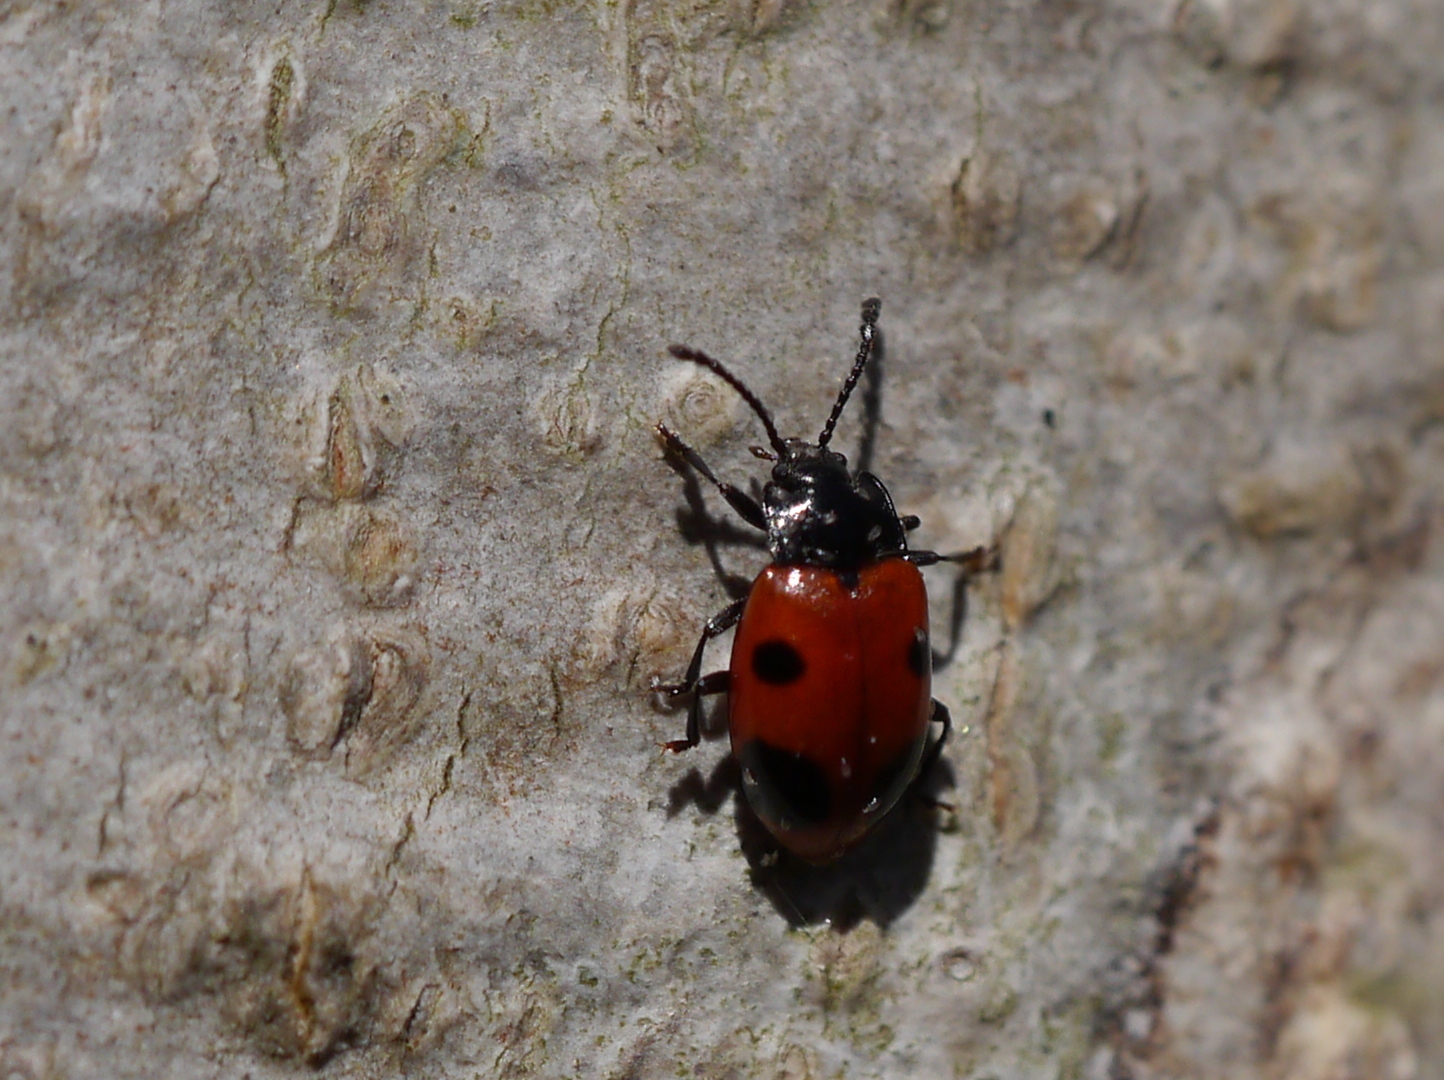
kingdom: Animalia
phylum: Arthropoda
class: Insecta
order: Coleoptera
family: Endomychidae
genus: Endomychus
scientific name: Endomychus biguttatus
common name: Handsome fungus beetle
